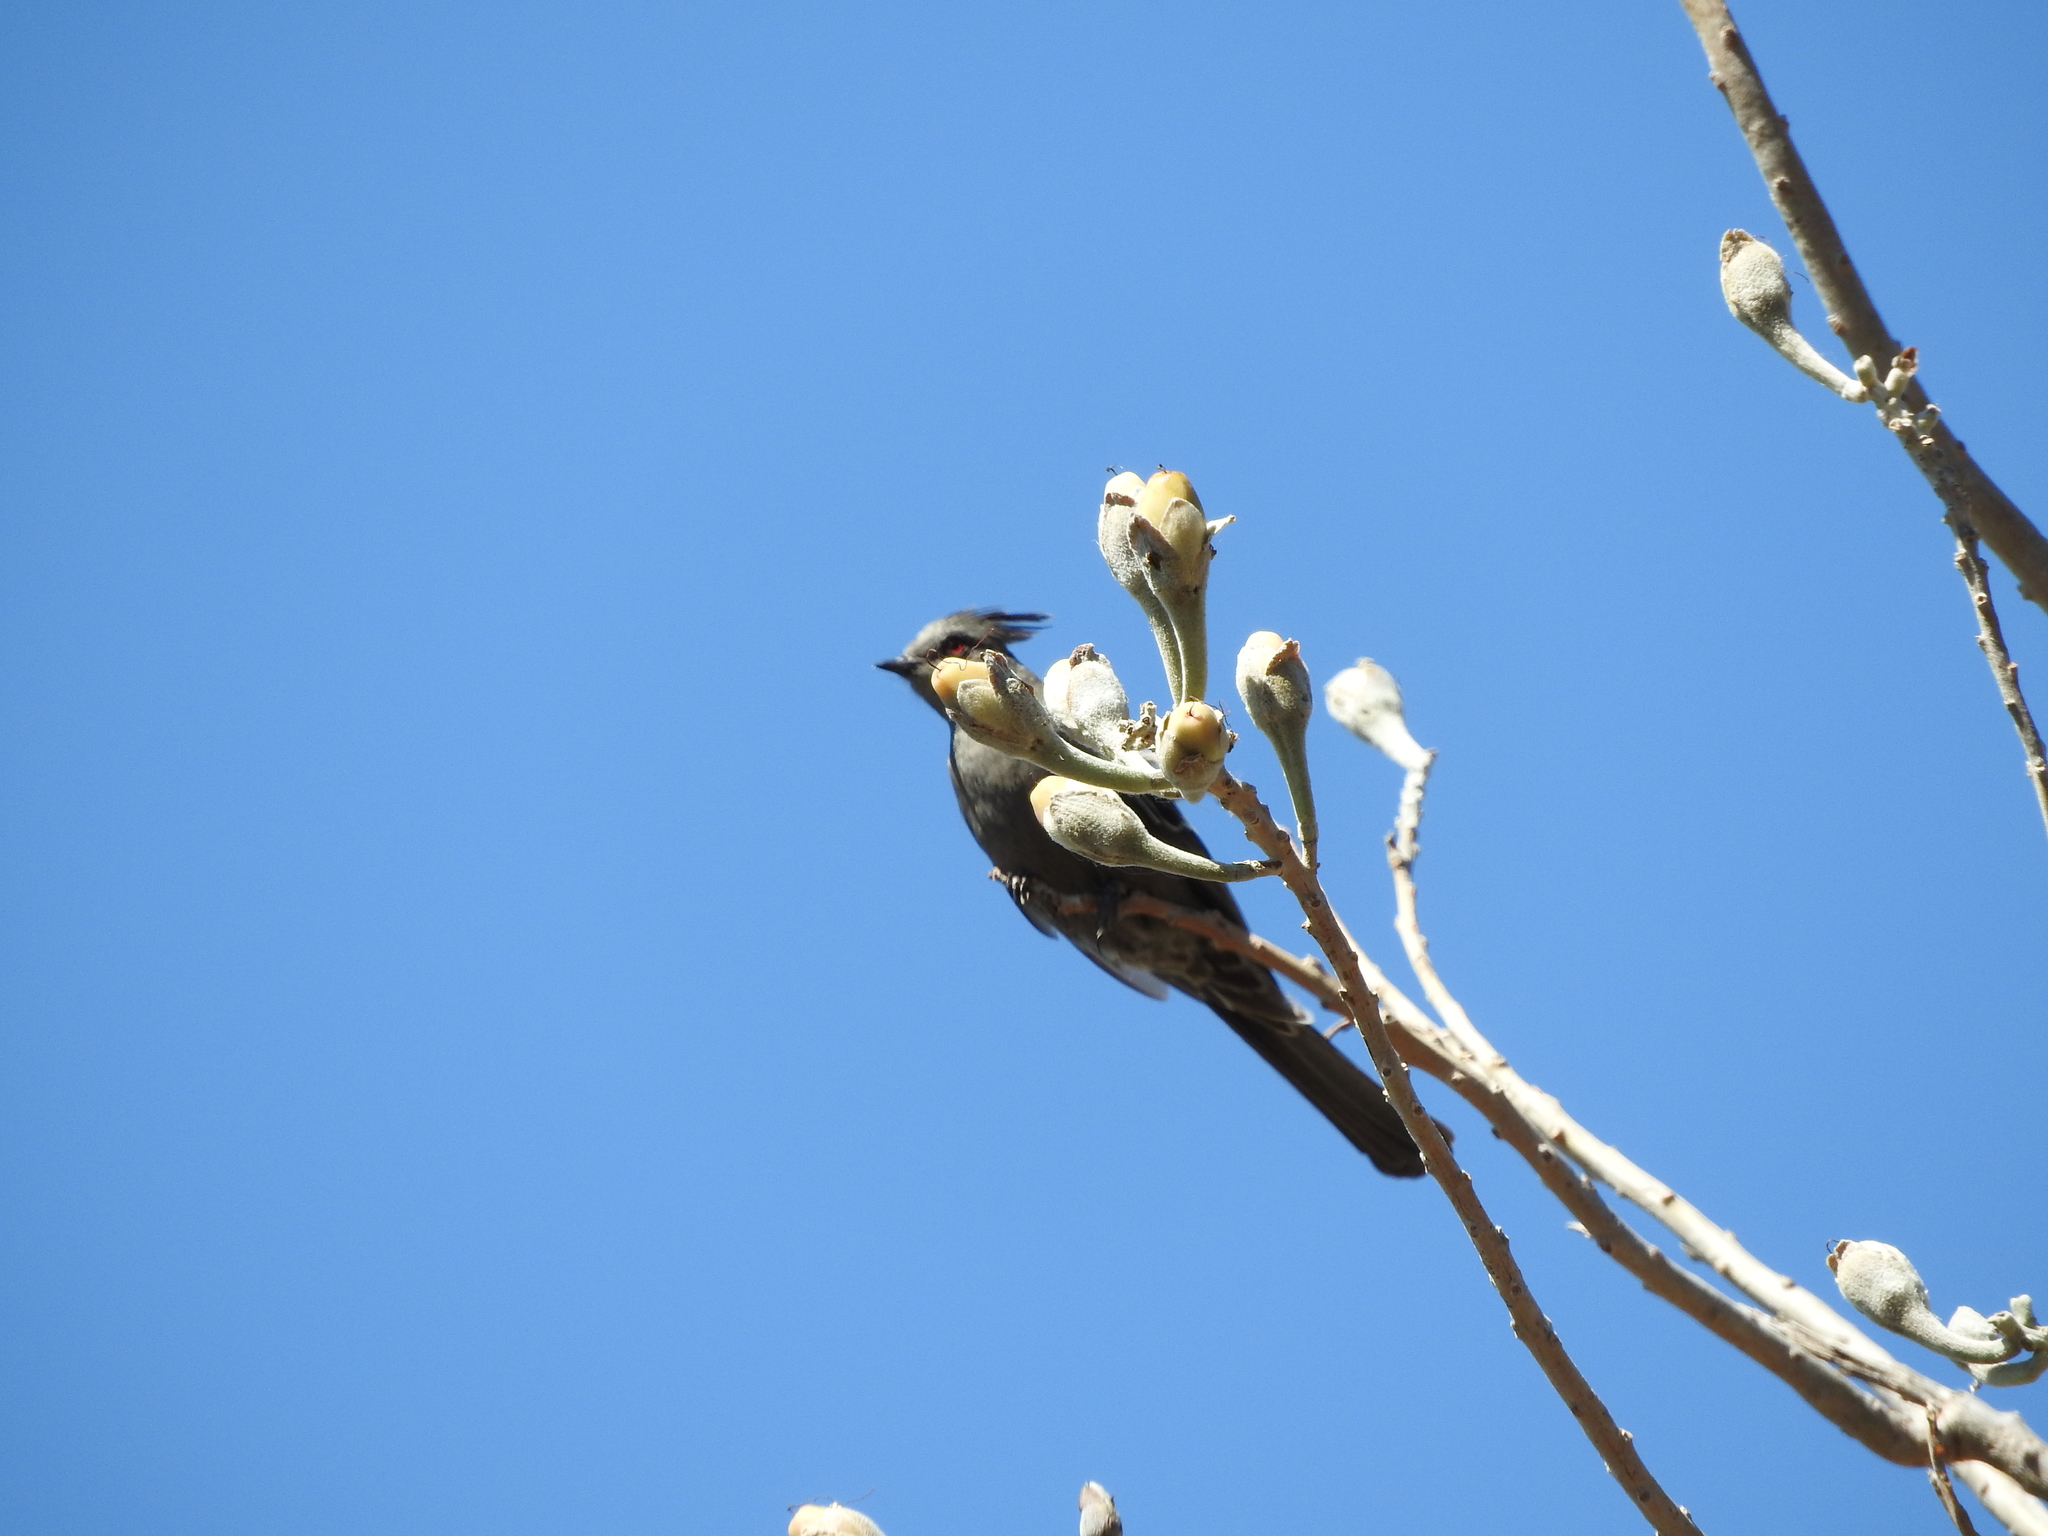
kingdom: Animalia
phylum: Chordata
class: Aves
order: Passeriformes
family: Ptilogonatidae
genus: Phainopepla
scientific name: Phainopepla nitens
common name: Phainopepla
